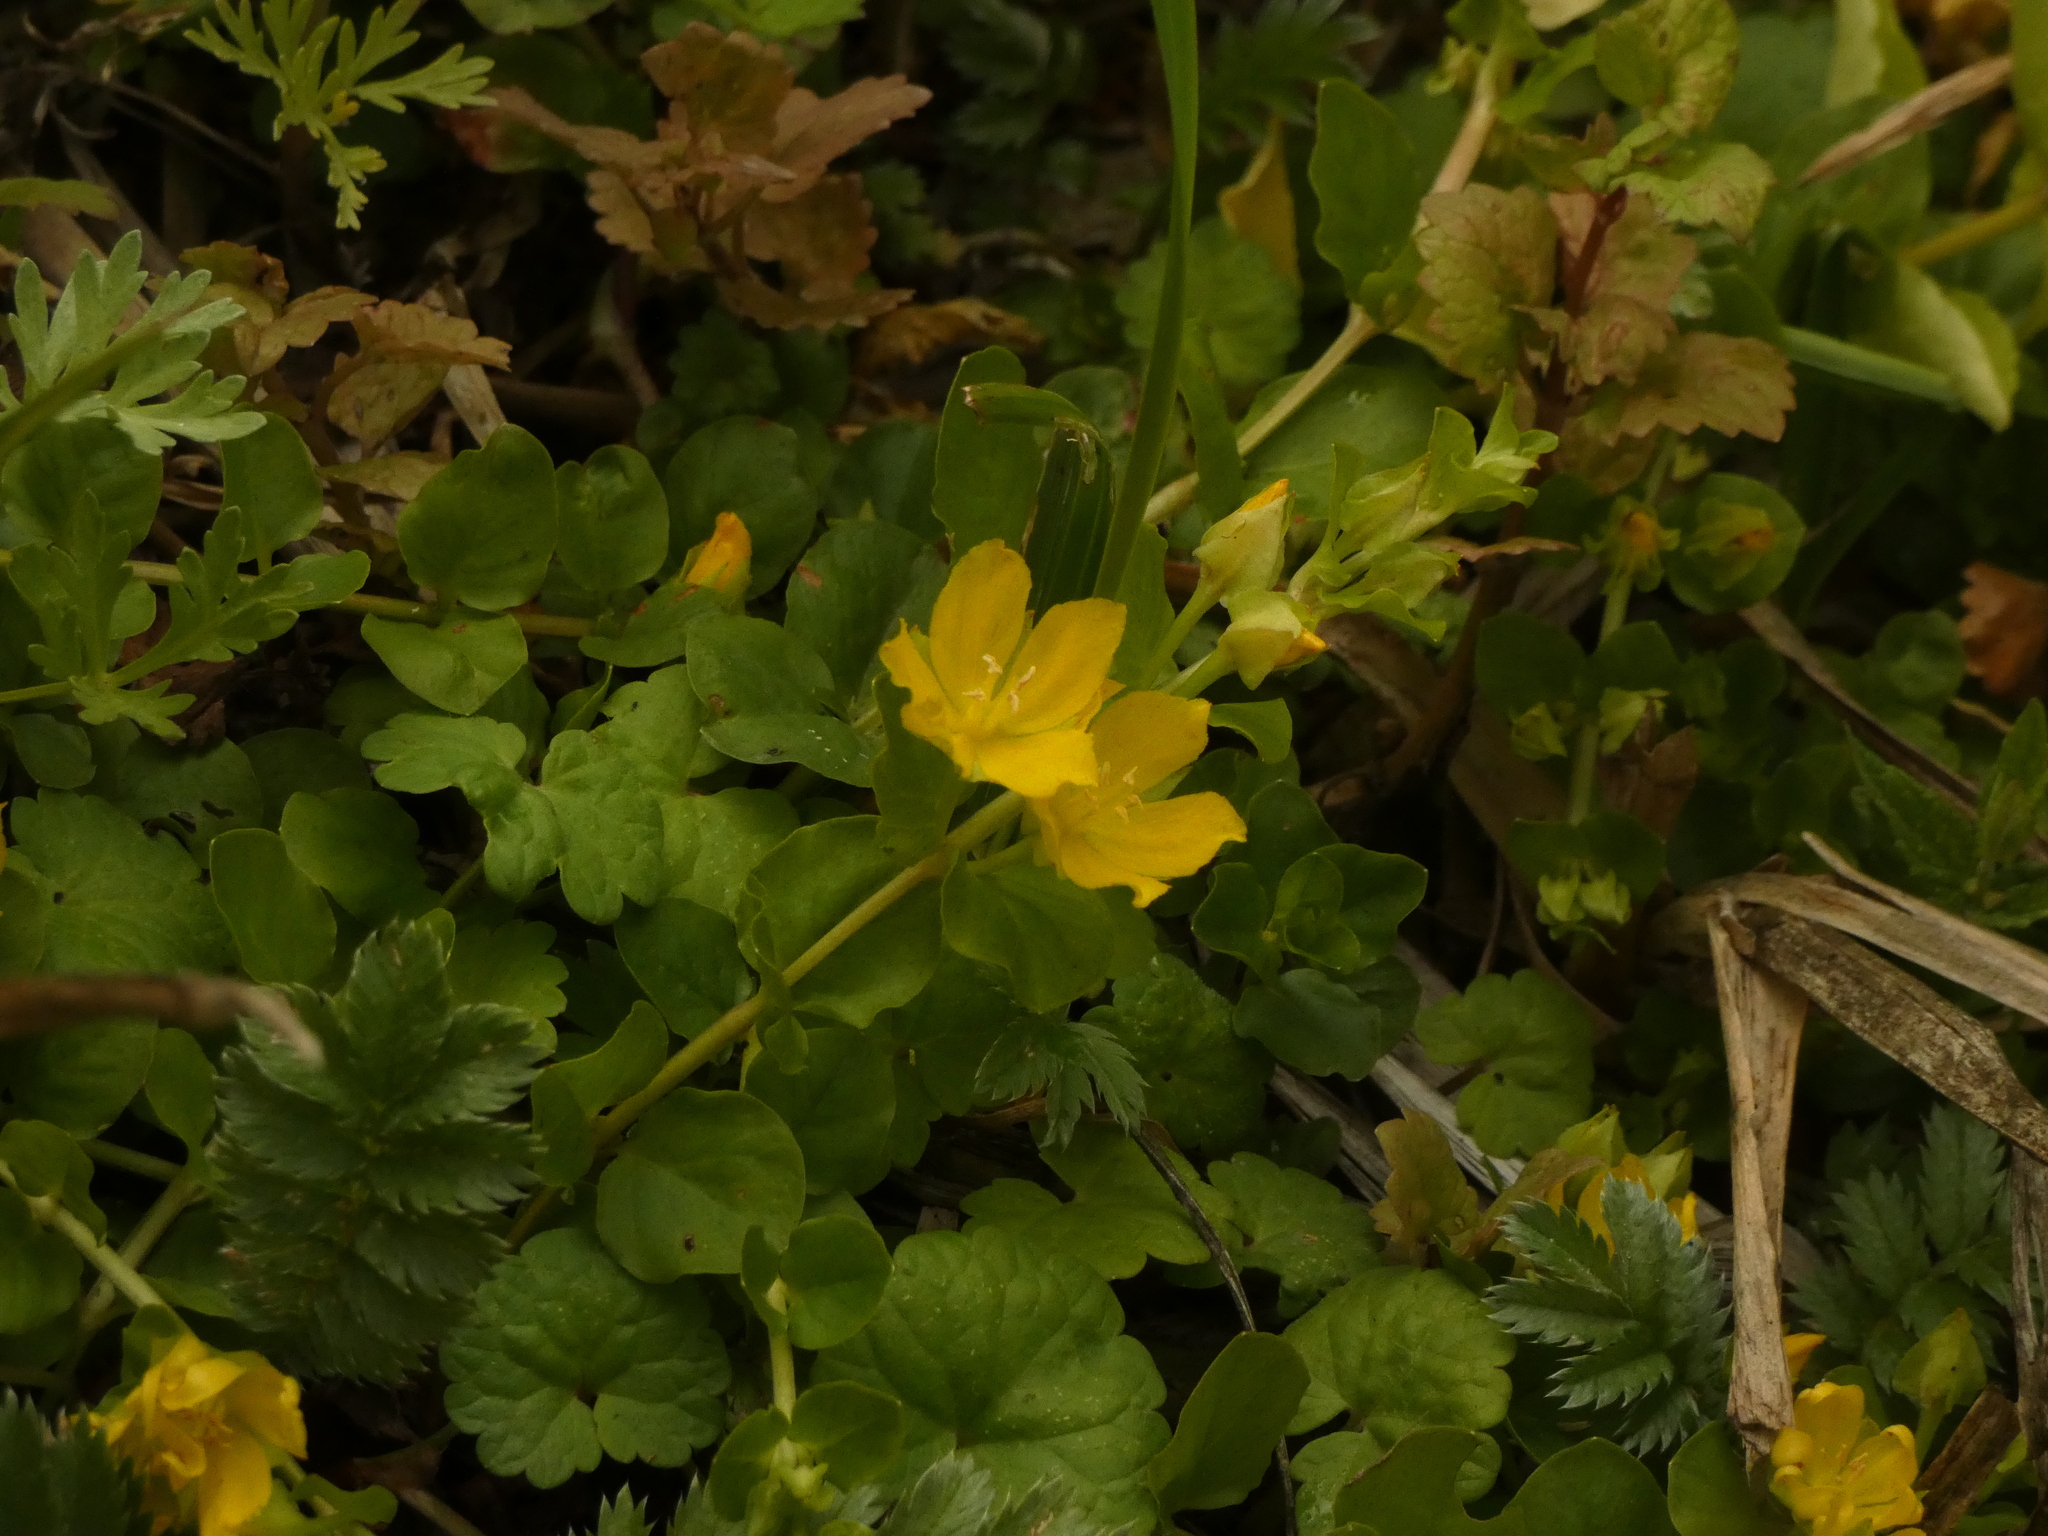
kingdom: Plantae
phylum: Tracheophyta
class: Magnoliopsida
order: Ericales
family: Primulaceae
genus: Lysimachia
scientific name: Lysimachia nummularia
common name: Moneywort
